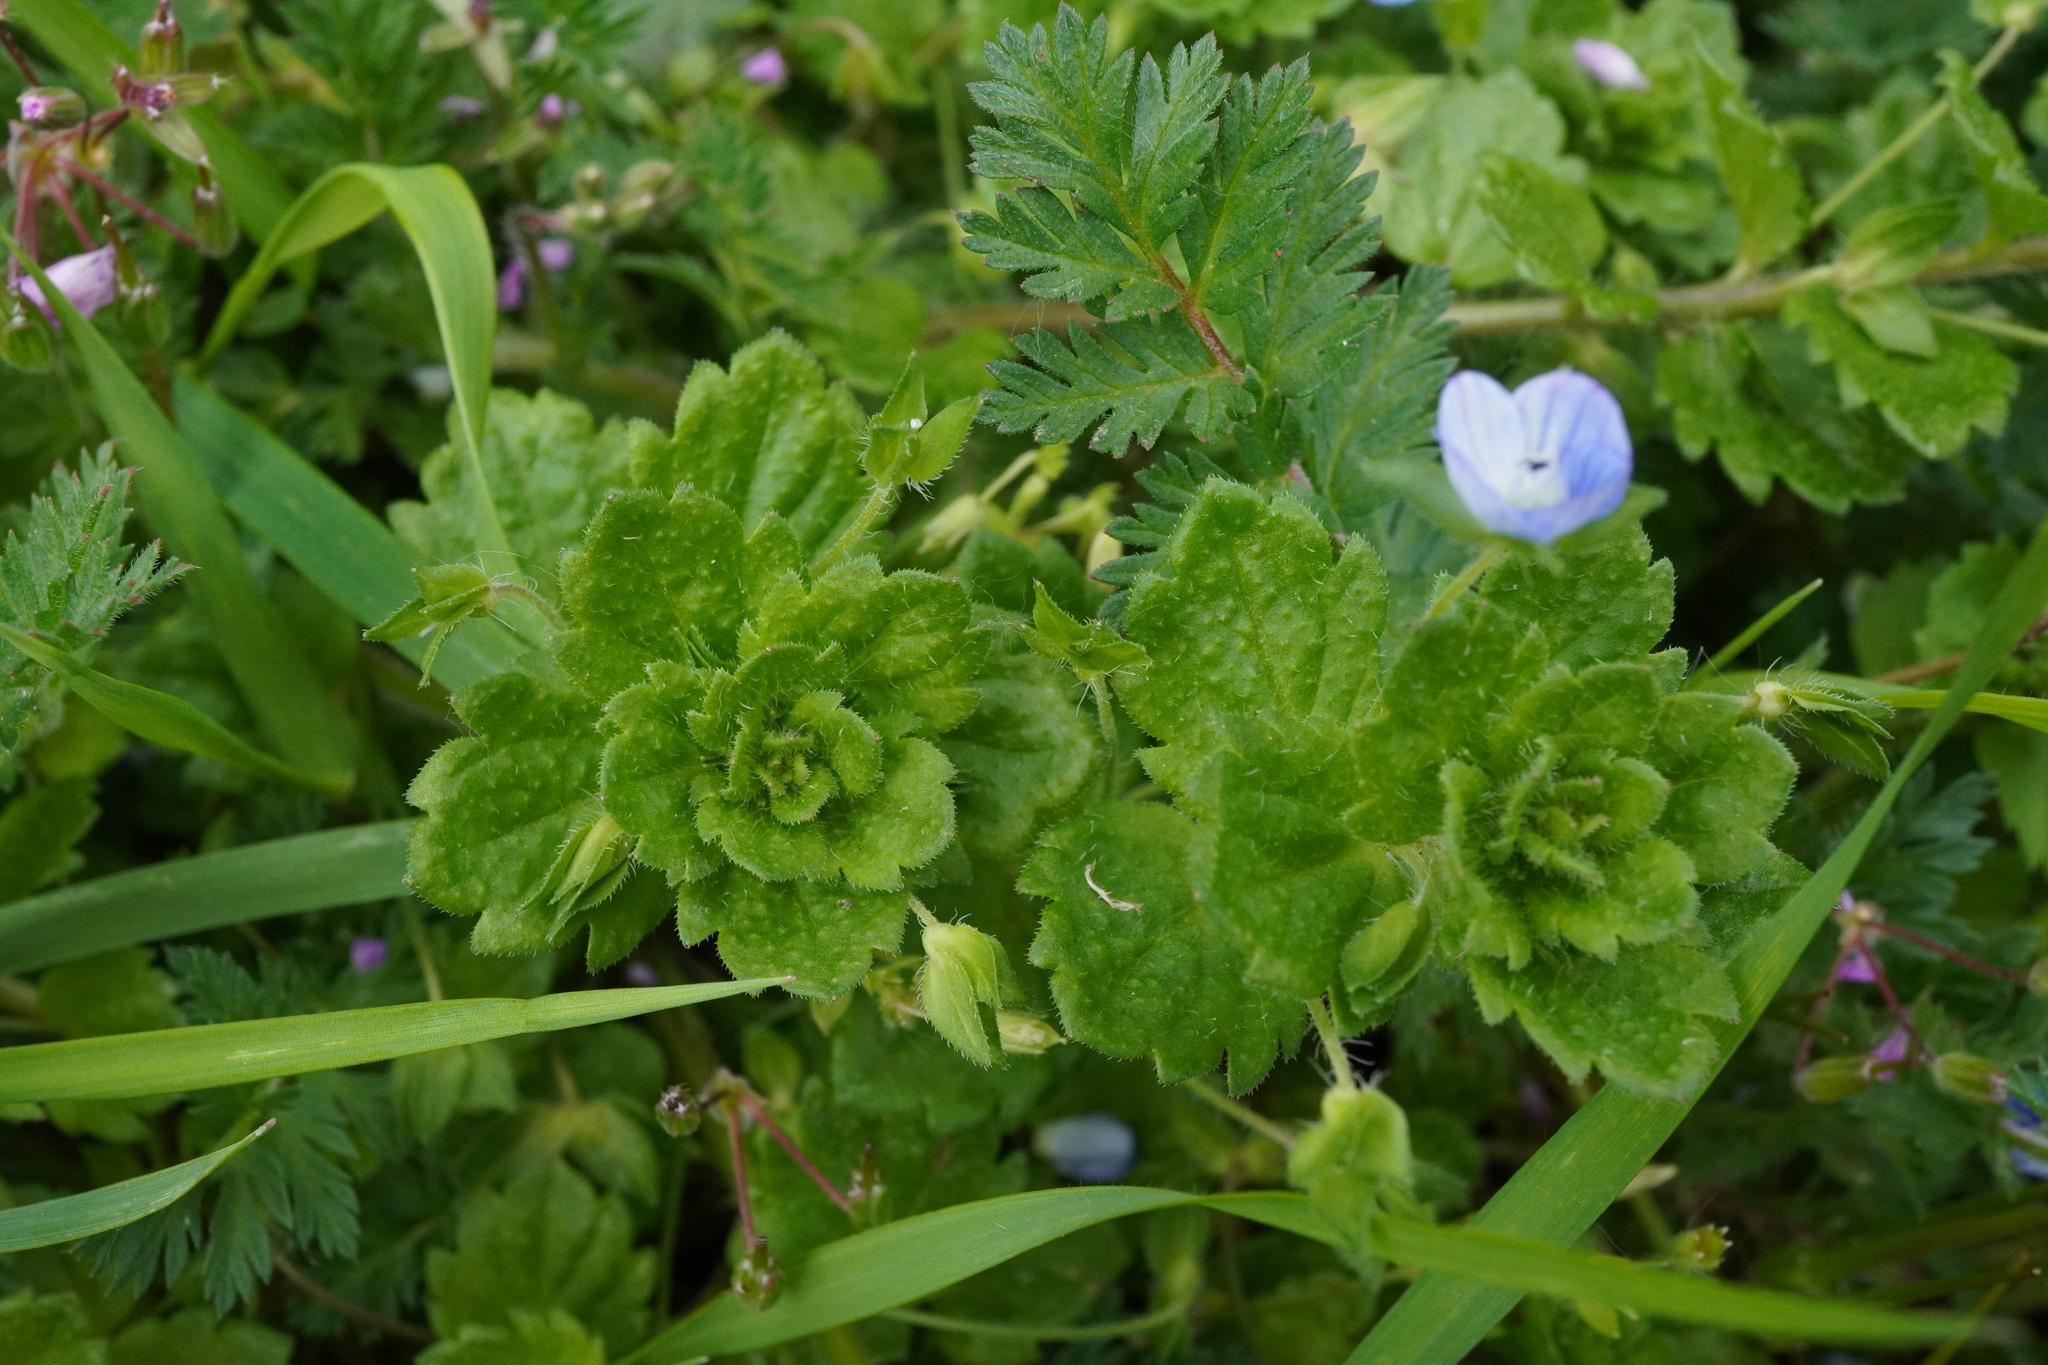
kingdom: Plantae
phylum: Tracheophyta
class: Magnoliopsida
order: Lamiales
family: Plantaginaceae
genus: Veronica
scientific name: Veronica persica
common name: Common field-speedwell
